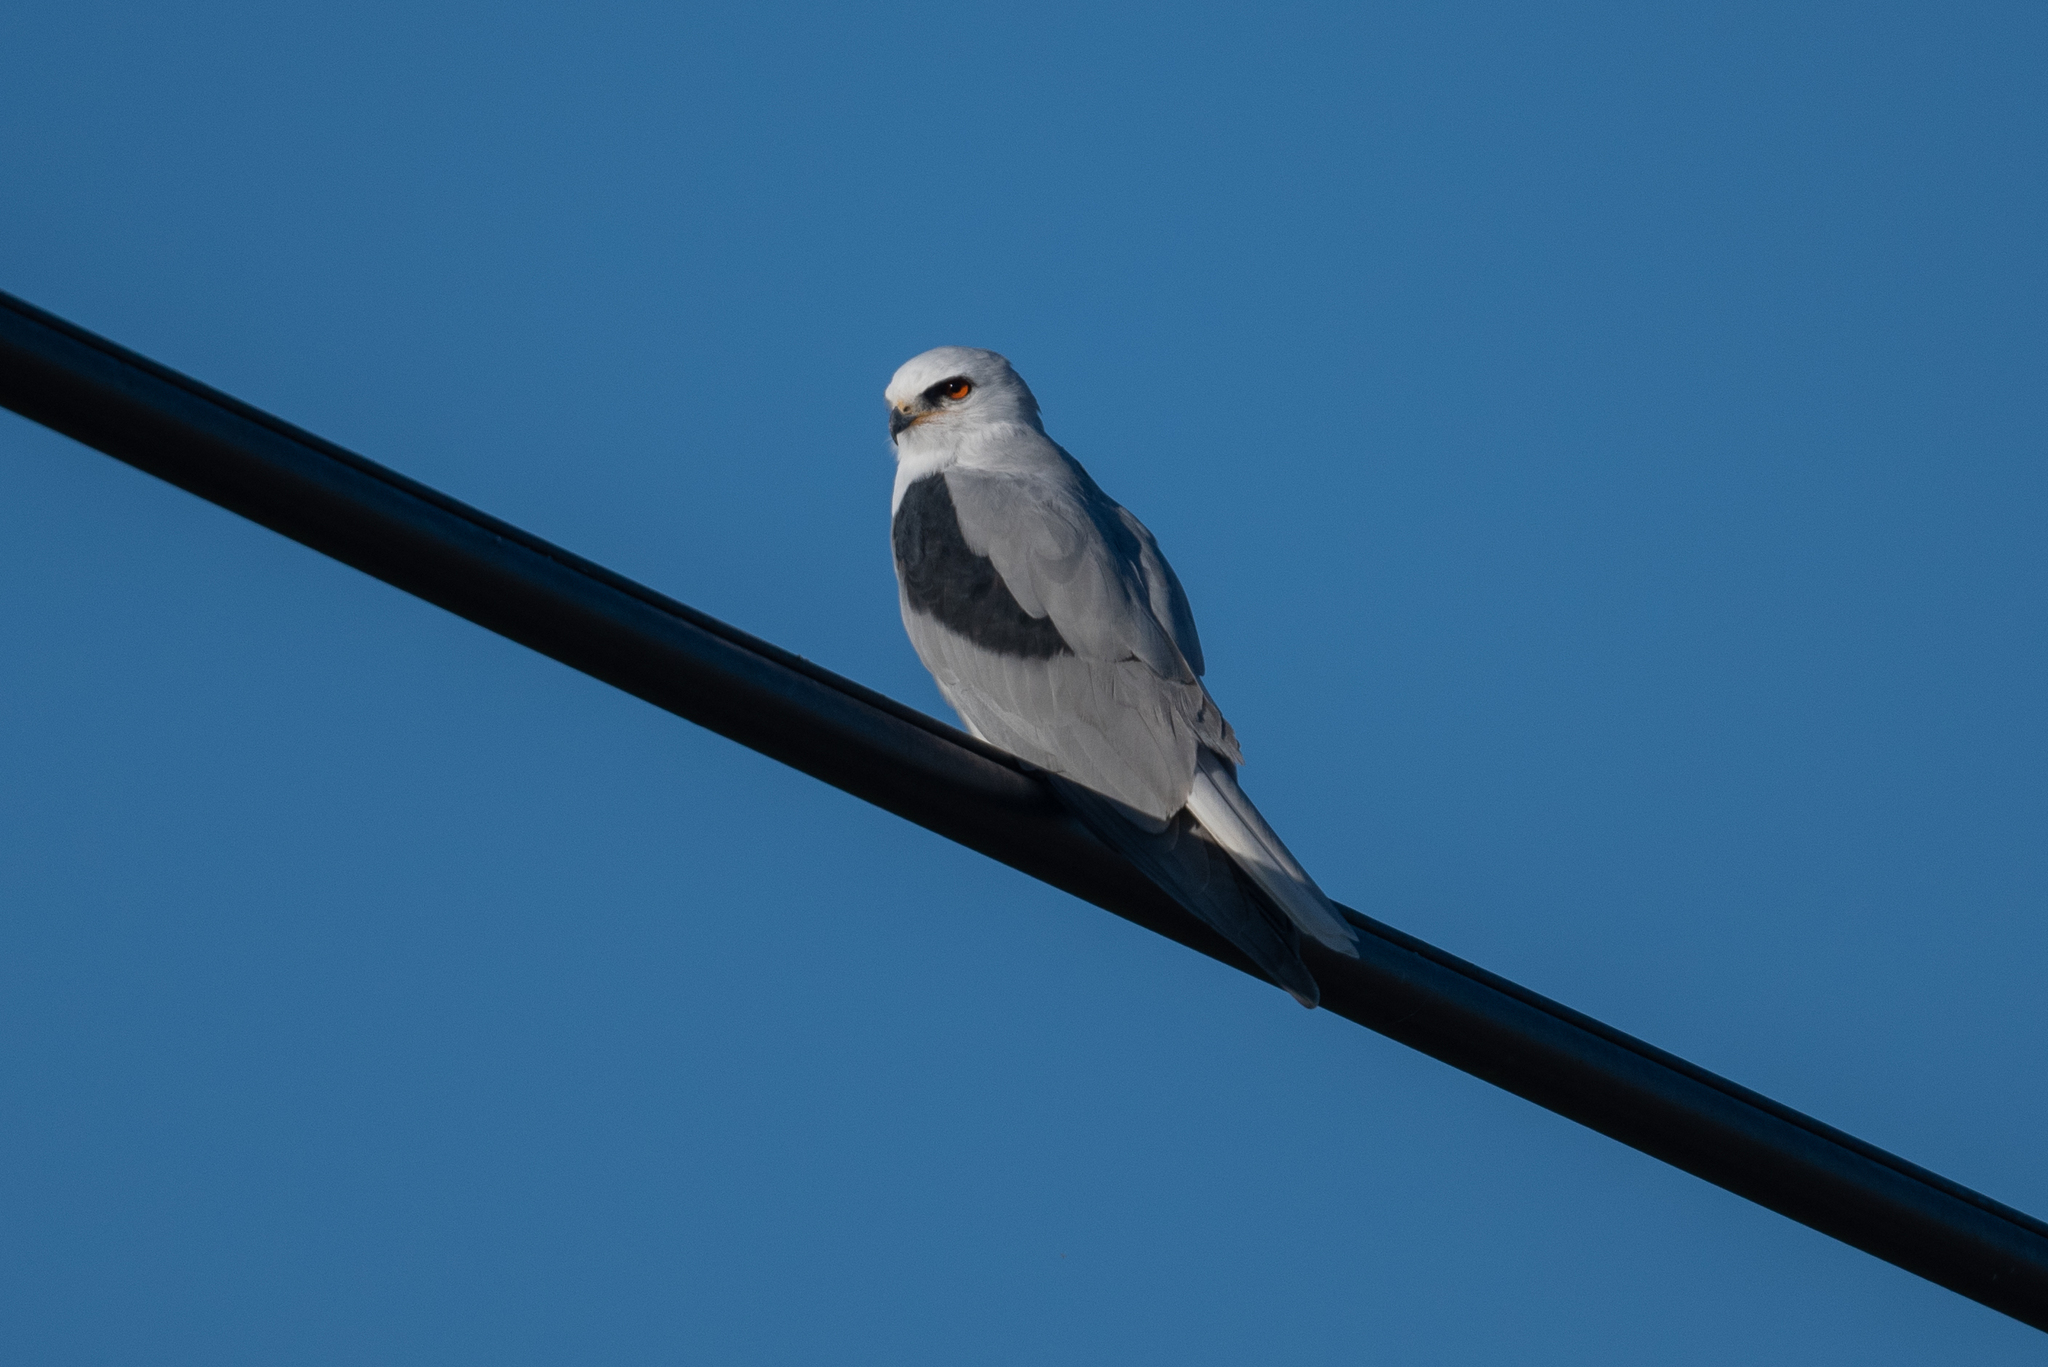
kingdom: Animalia
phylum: Chordata
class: Aves
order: Accipitriformes
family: Accipitridae
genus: Elanus
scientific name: Elanus leucurus
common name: White-tailed kite
